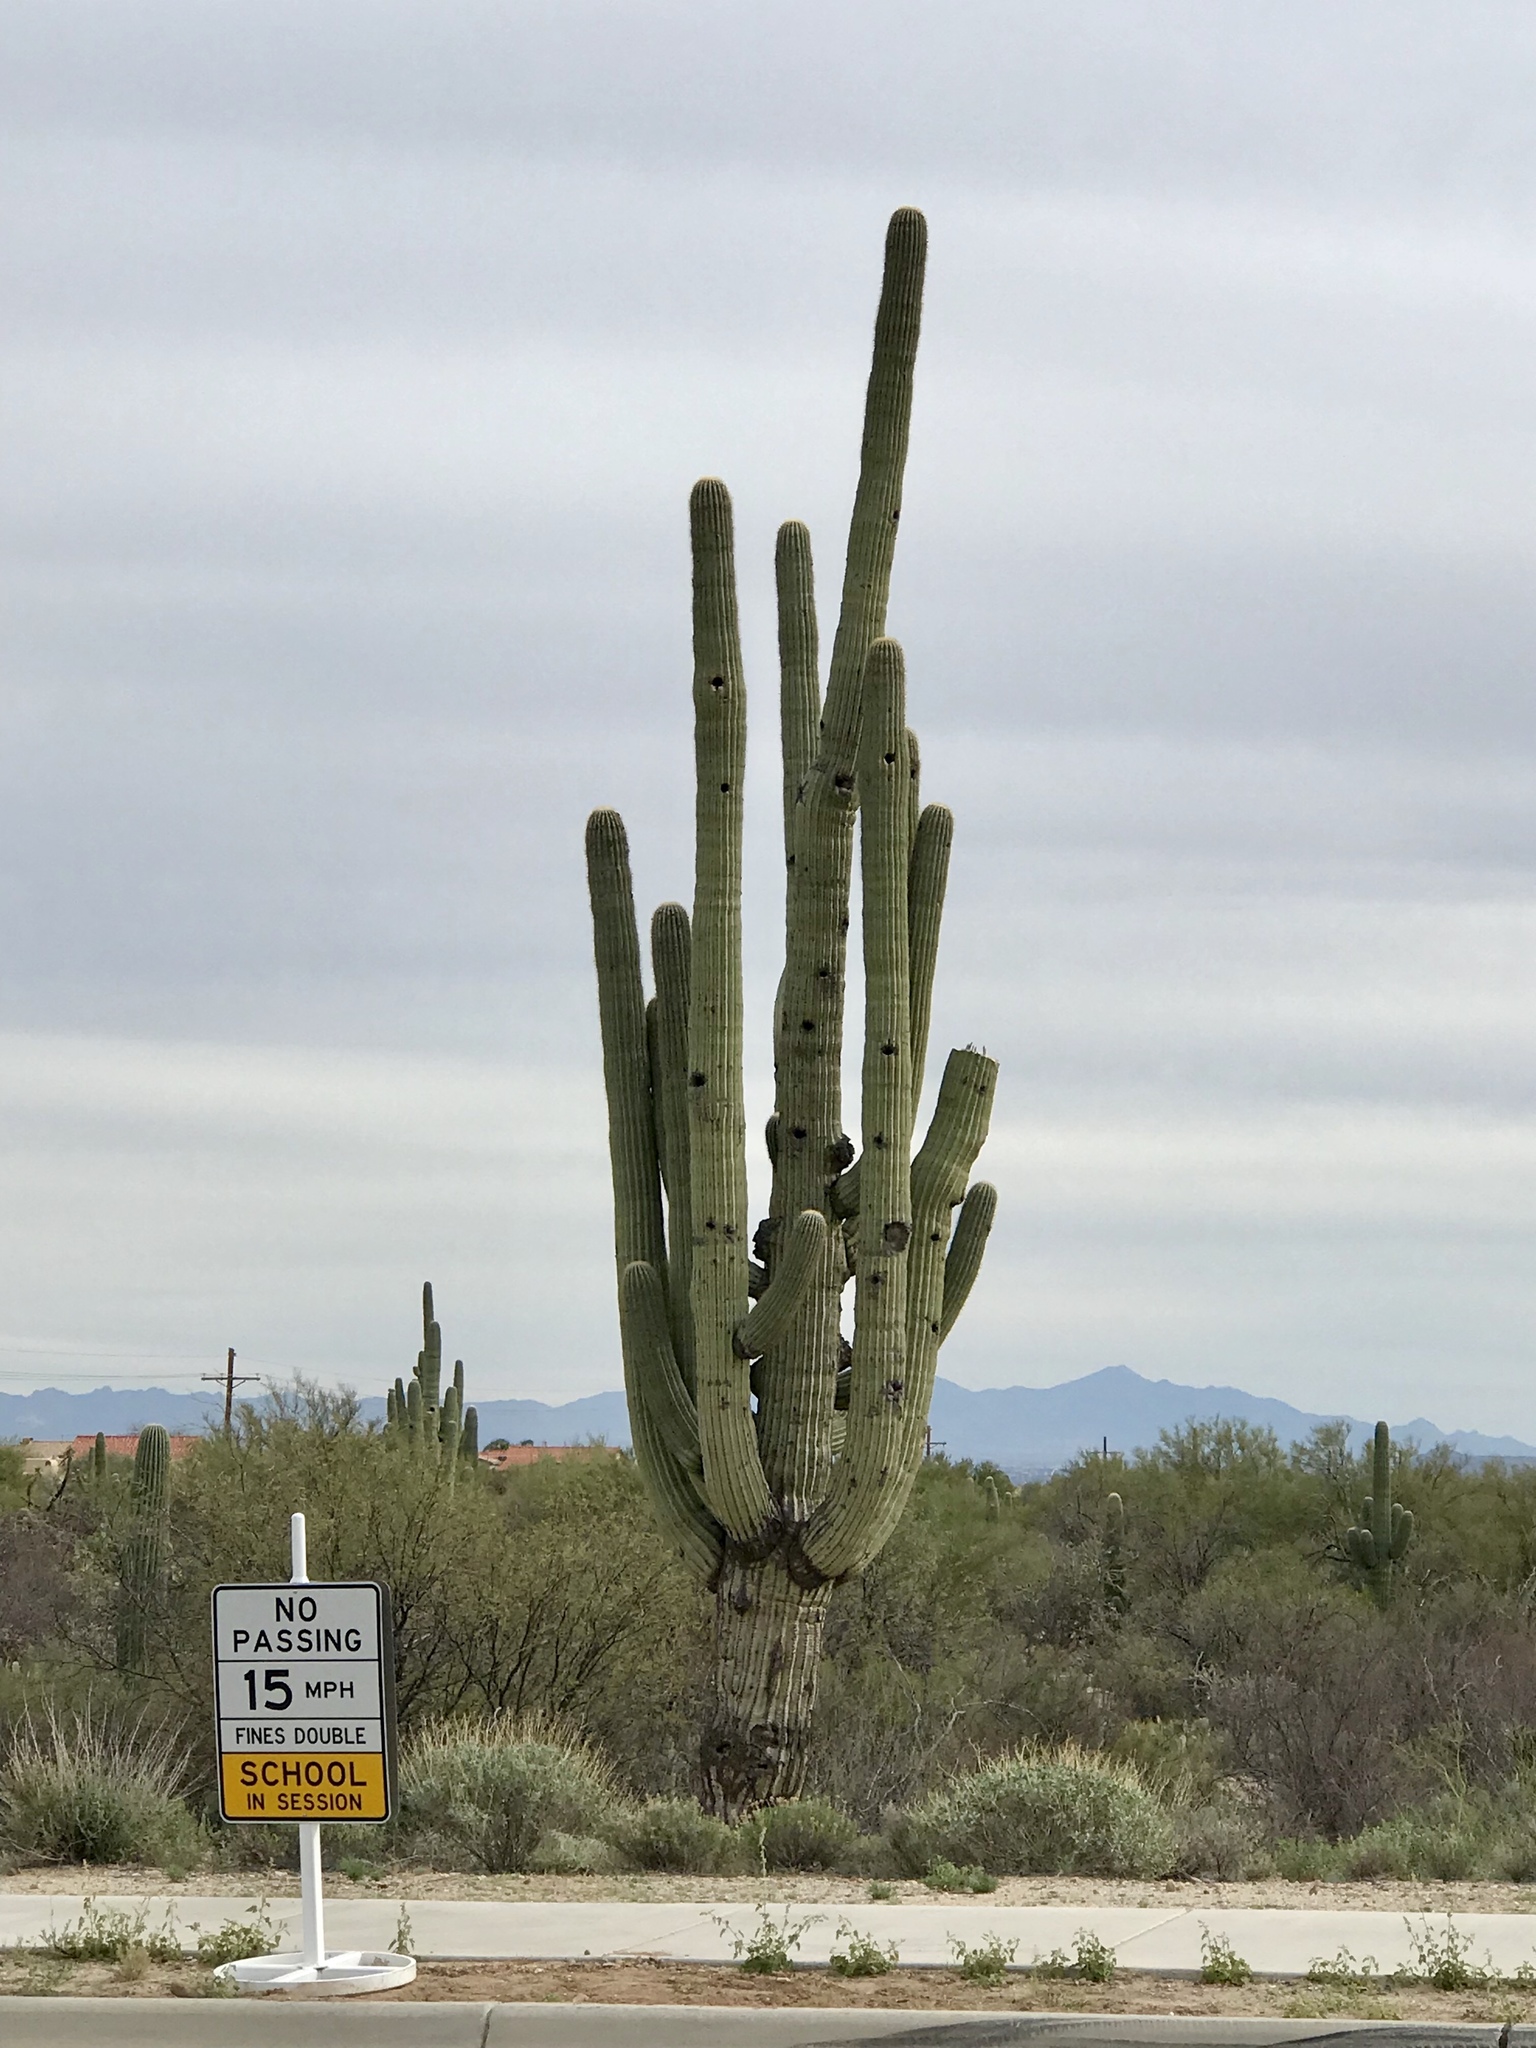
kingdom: Plantae
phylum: Tracheophyta
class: Magnoliopsida
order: Caryophyllales
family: Cactaceae
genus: Carnegiea
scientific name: Carnegiea gigantea
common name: Saguaro
